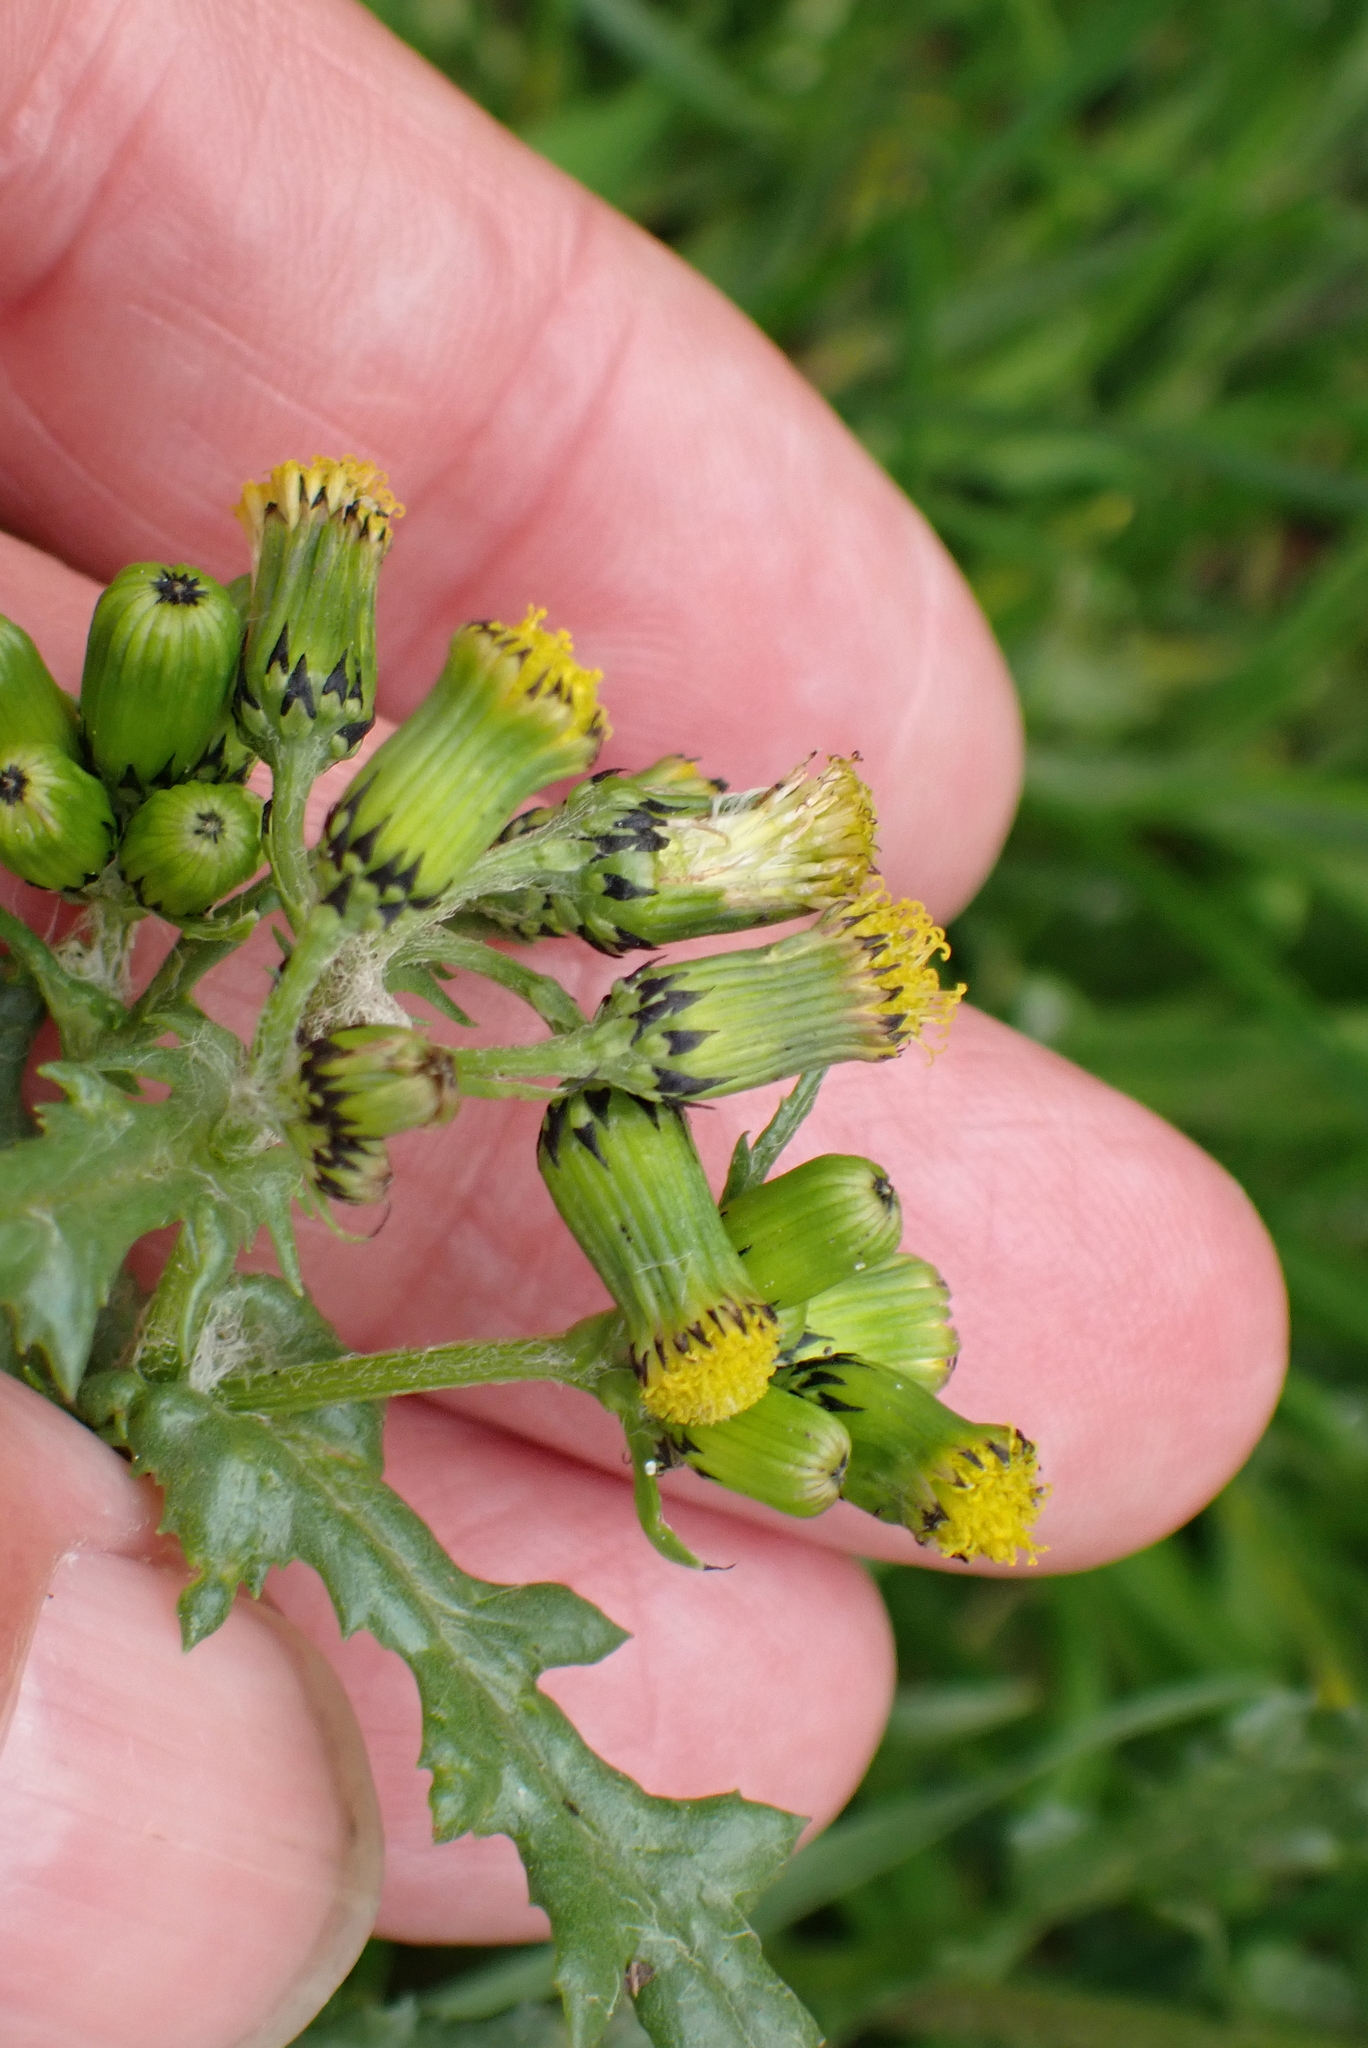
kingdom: Plantae
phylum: Tracheophyta
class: Magnoliopsida
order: Asterales
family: Asteraceae
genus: Senecio
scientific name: Senecio vulgaris
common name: Old-man-in-the-spring
